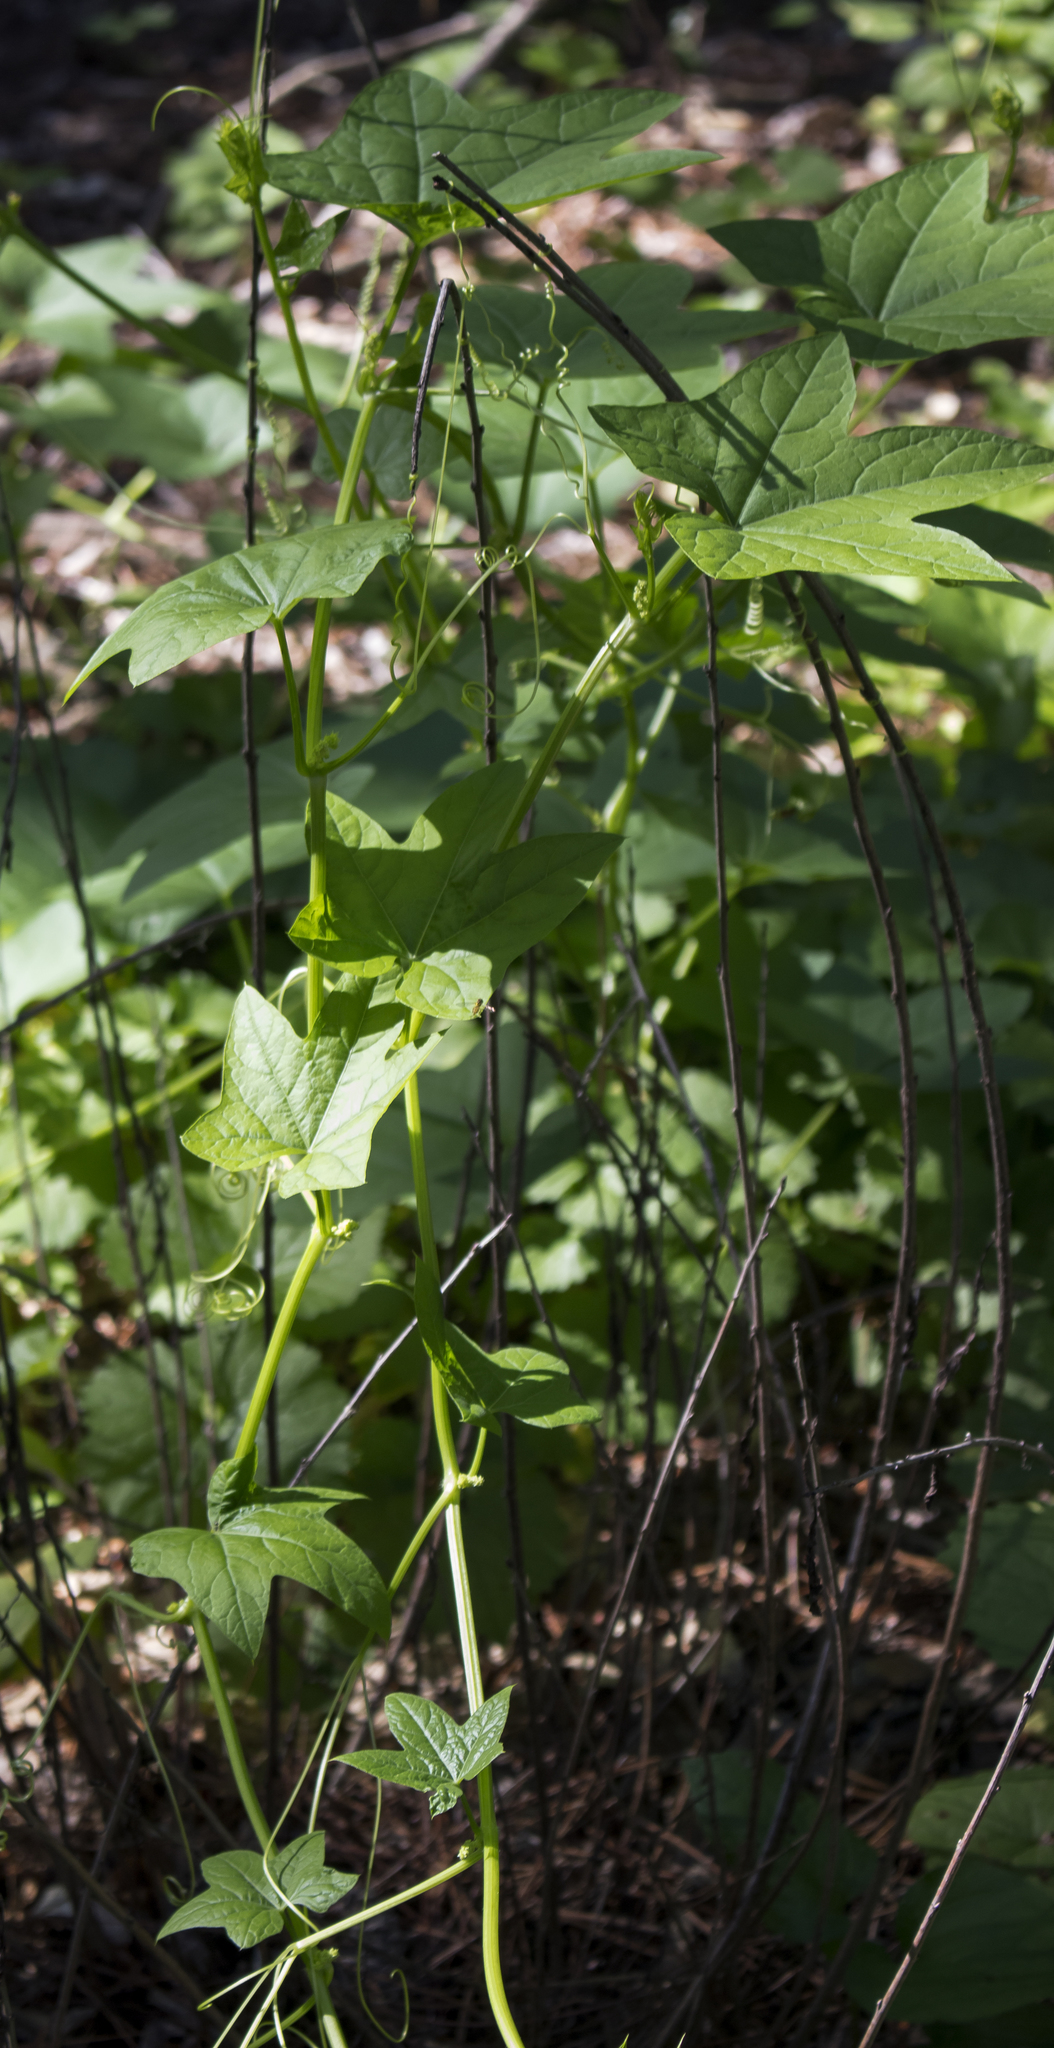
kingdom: Plantae
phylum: Tracheophyta
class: Magnoliopsida
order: Cucurbitales
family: Cucurbitaceae
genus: Echinocystis
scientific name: Echinocystis lobata
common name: Wild cucumber
